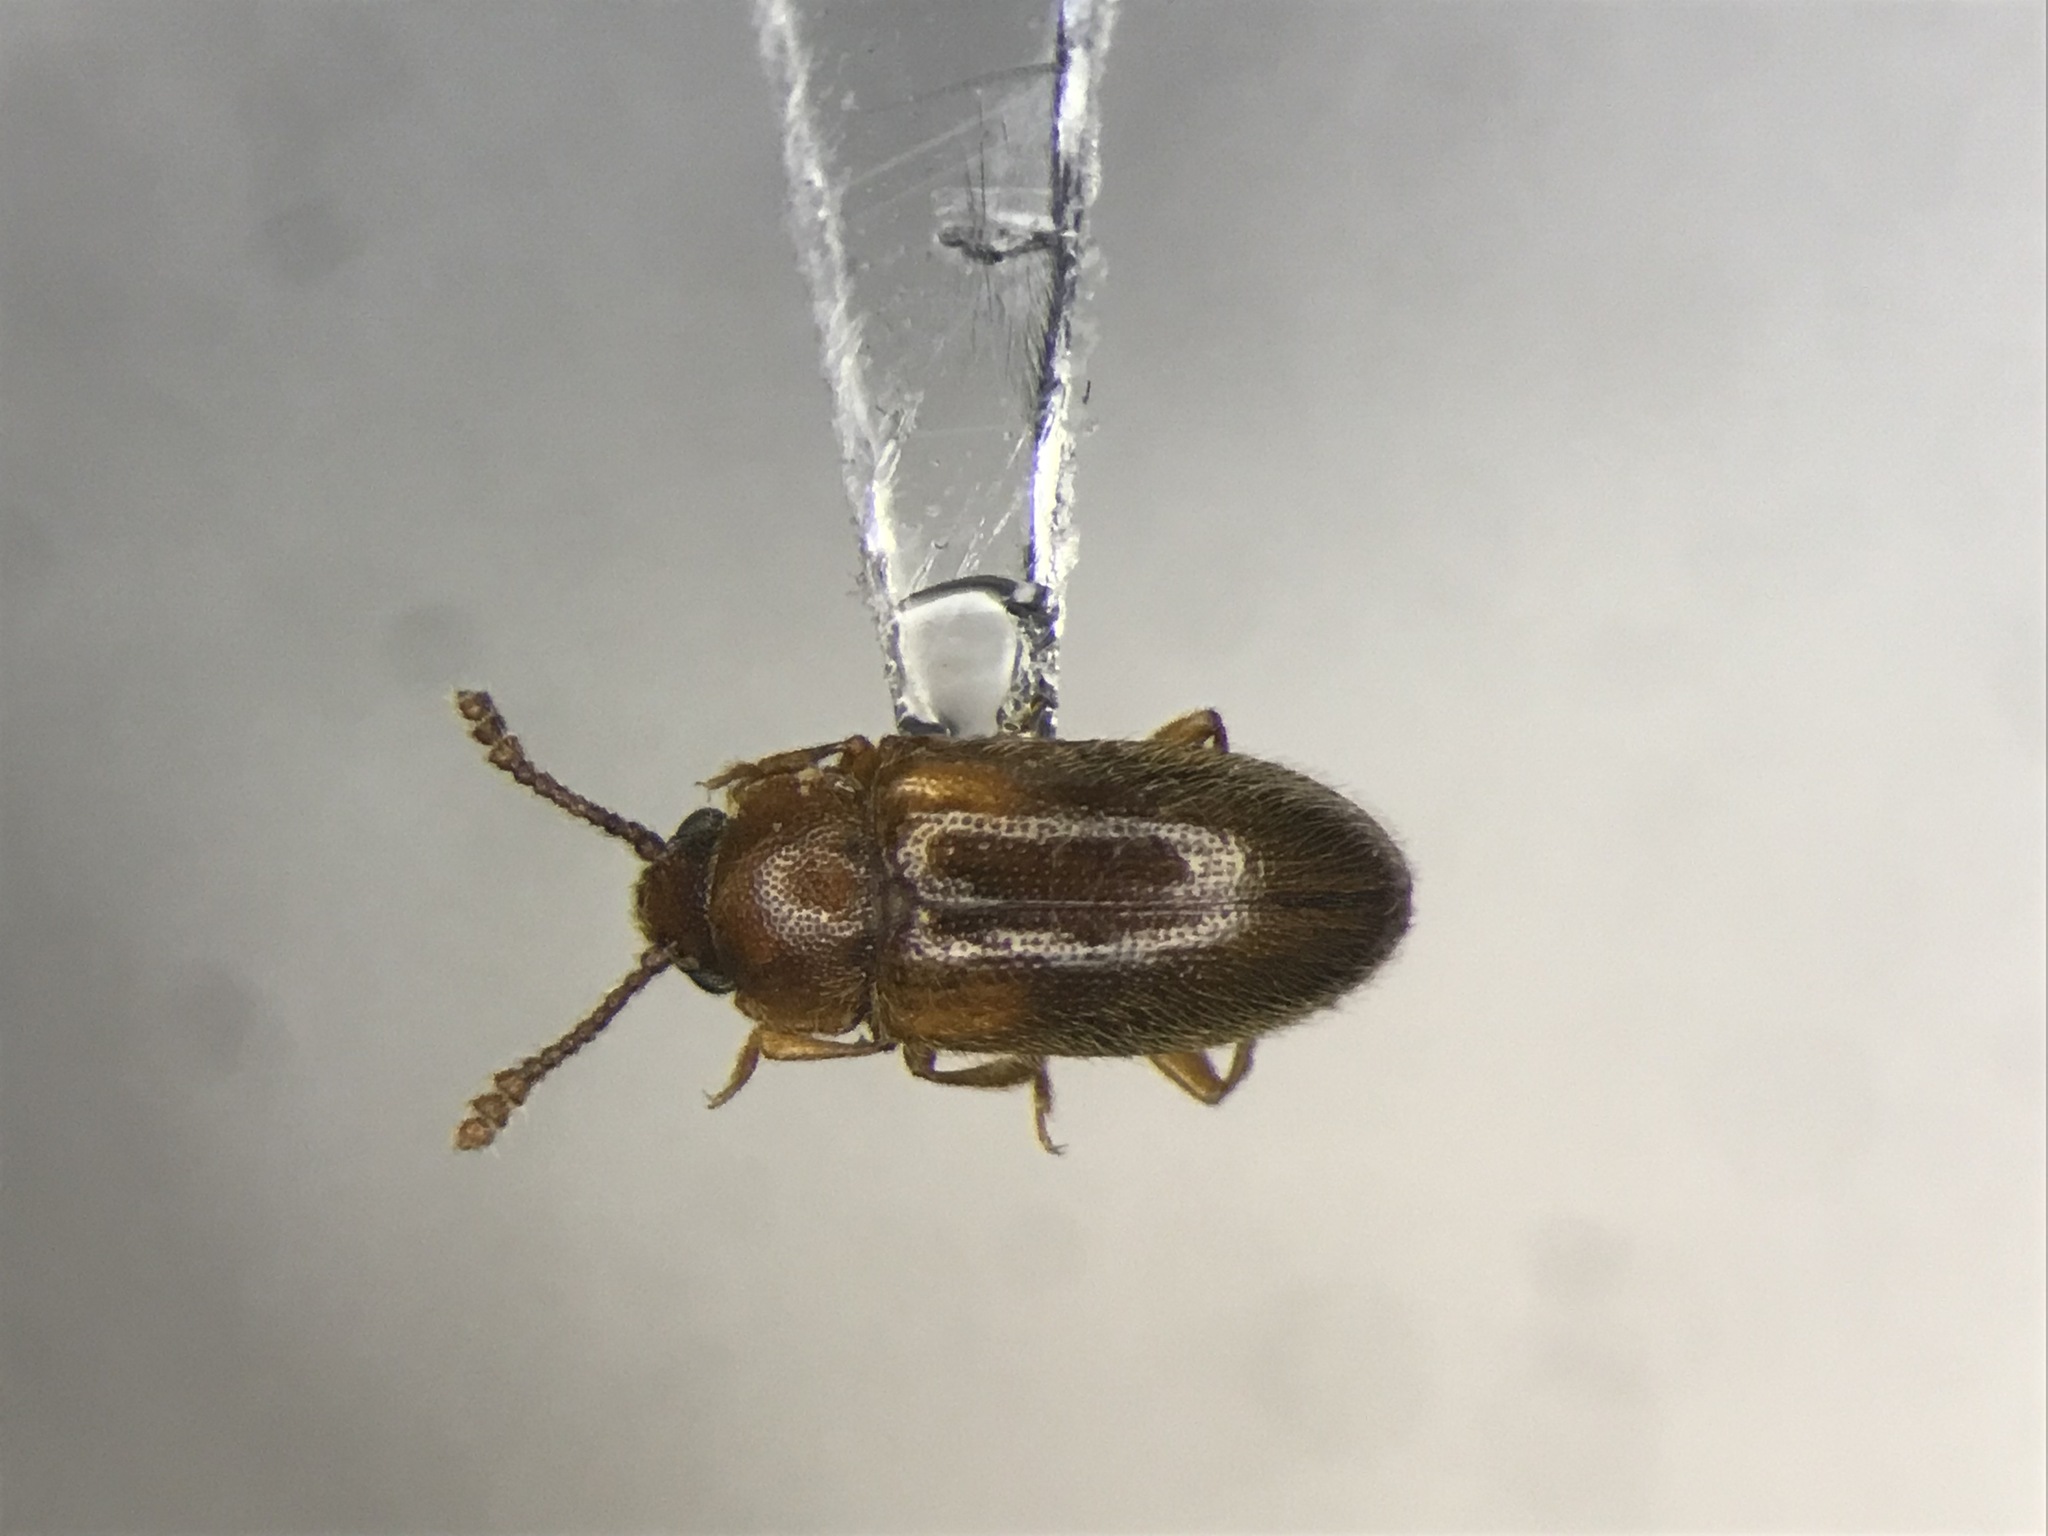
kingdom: Animalia
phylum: Arthropoda
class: Insecta
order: Coleoptera
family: Erotylidae
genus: Cryptophilus
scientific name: Cryptophilus obliteratus
